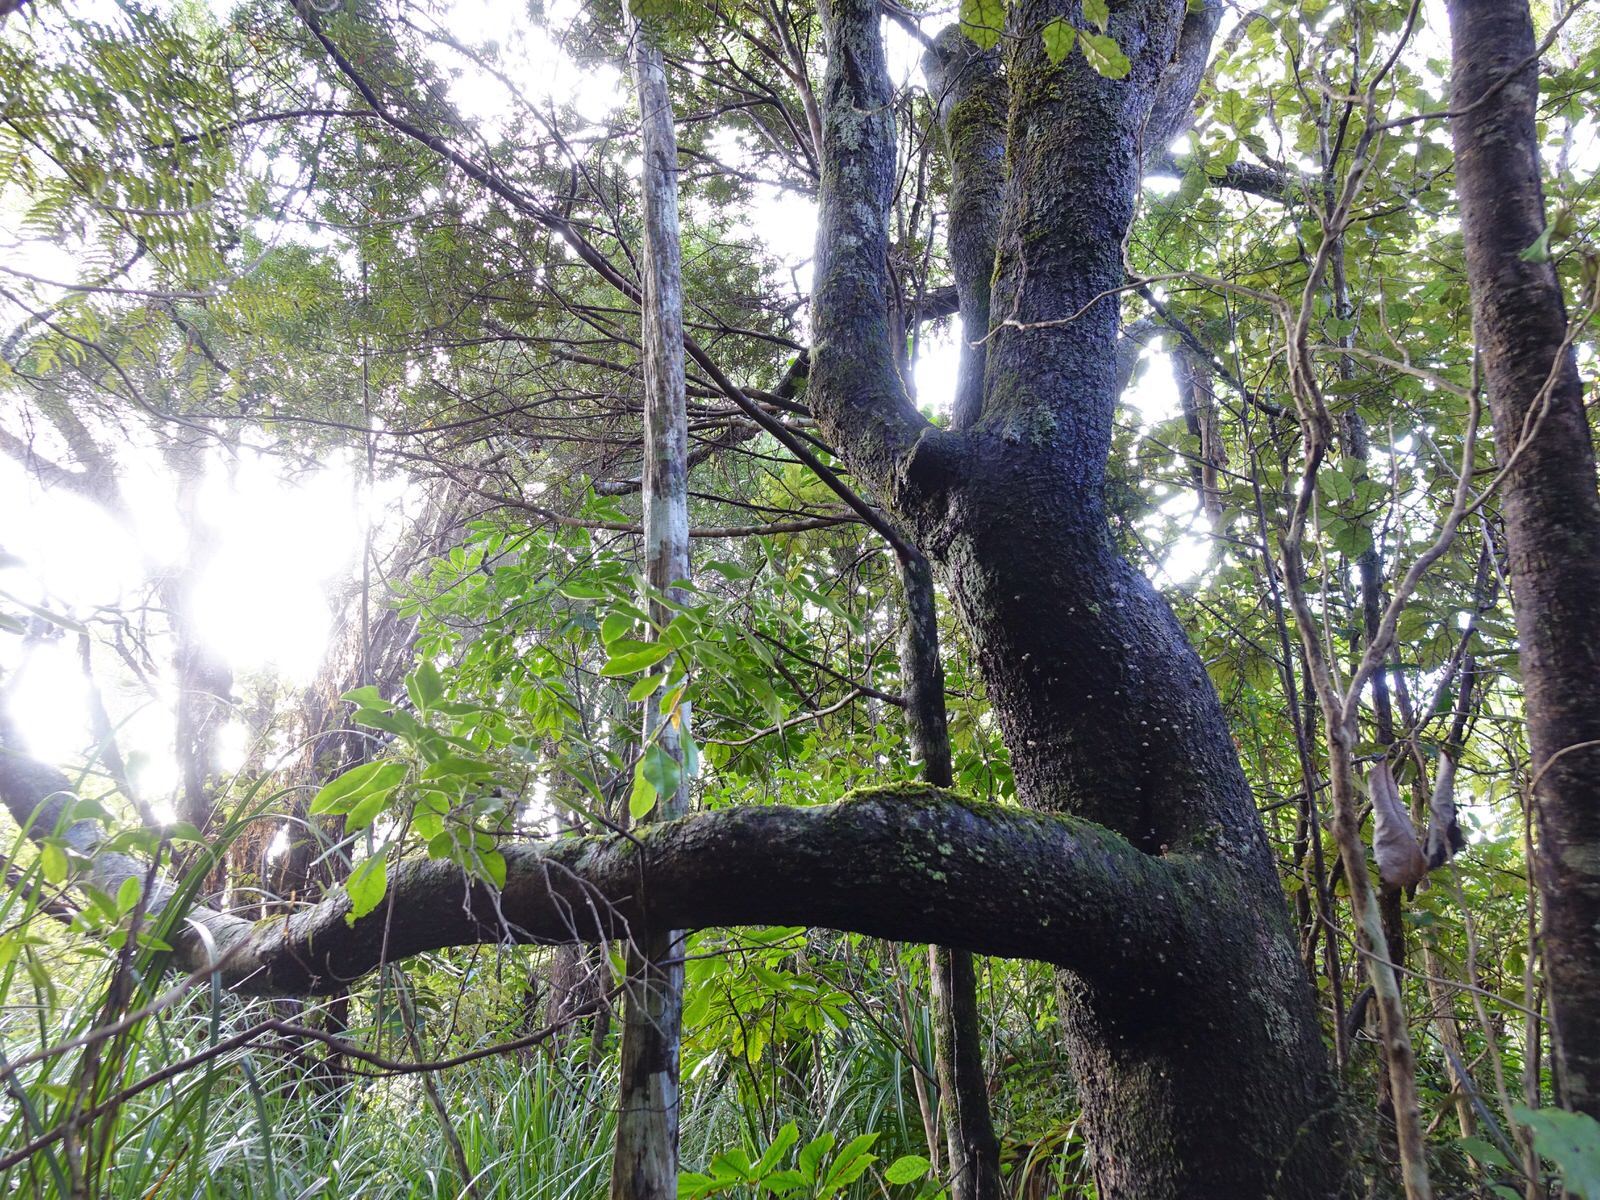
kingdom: Plantae
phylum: Tracheophyta
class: Magnoliopsida
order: Lamiales
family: Oleaceae
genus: Nestegis
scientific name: Nestegis montana
